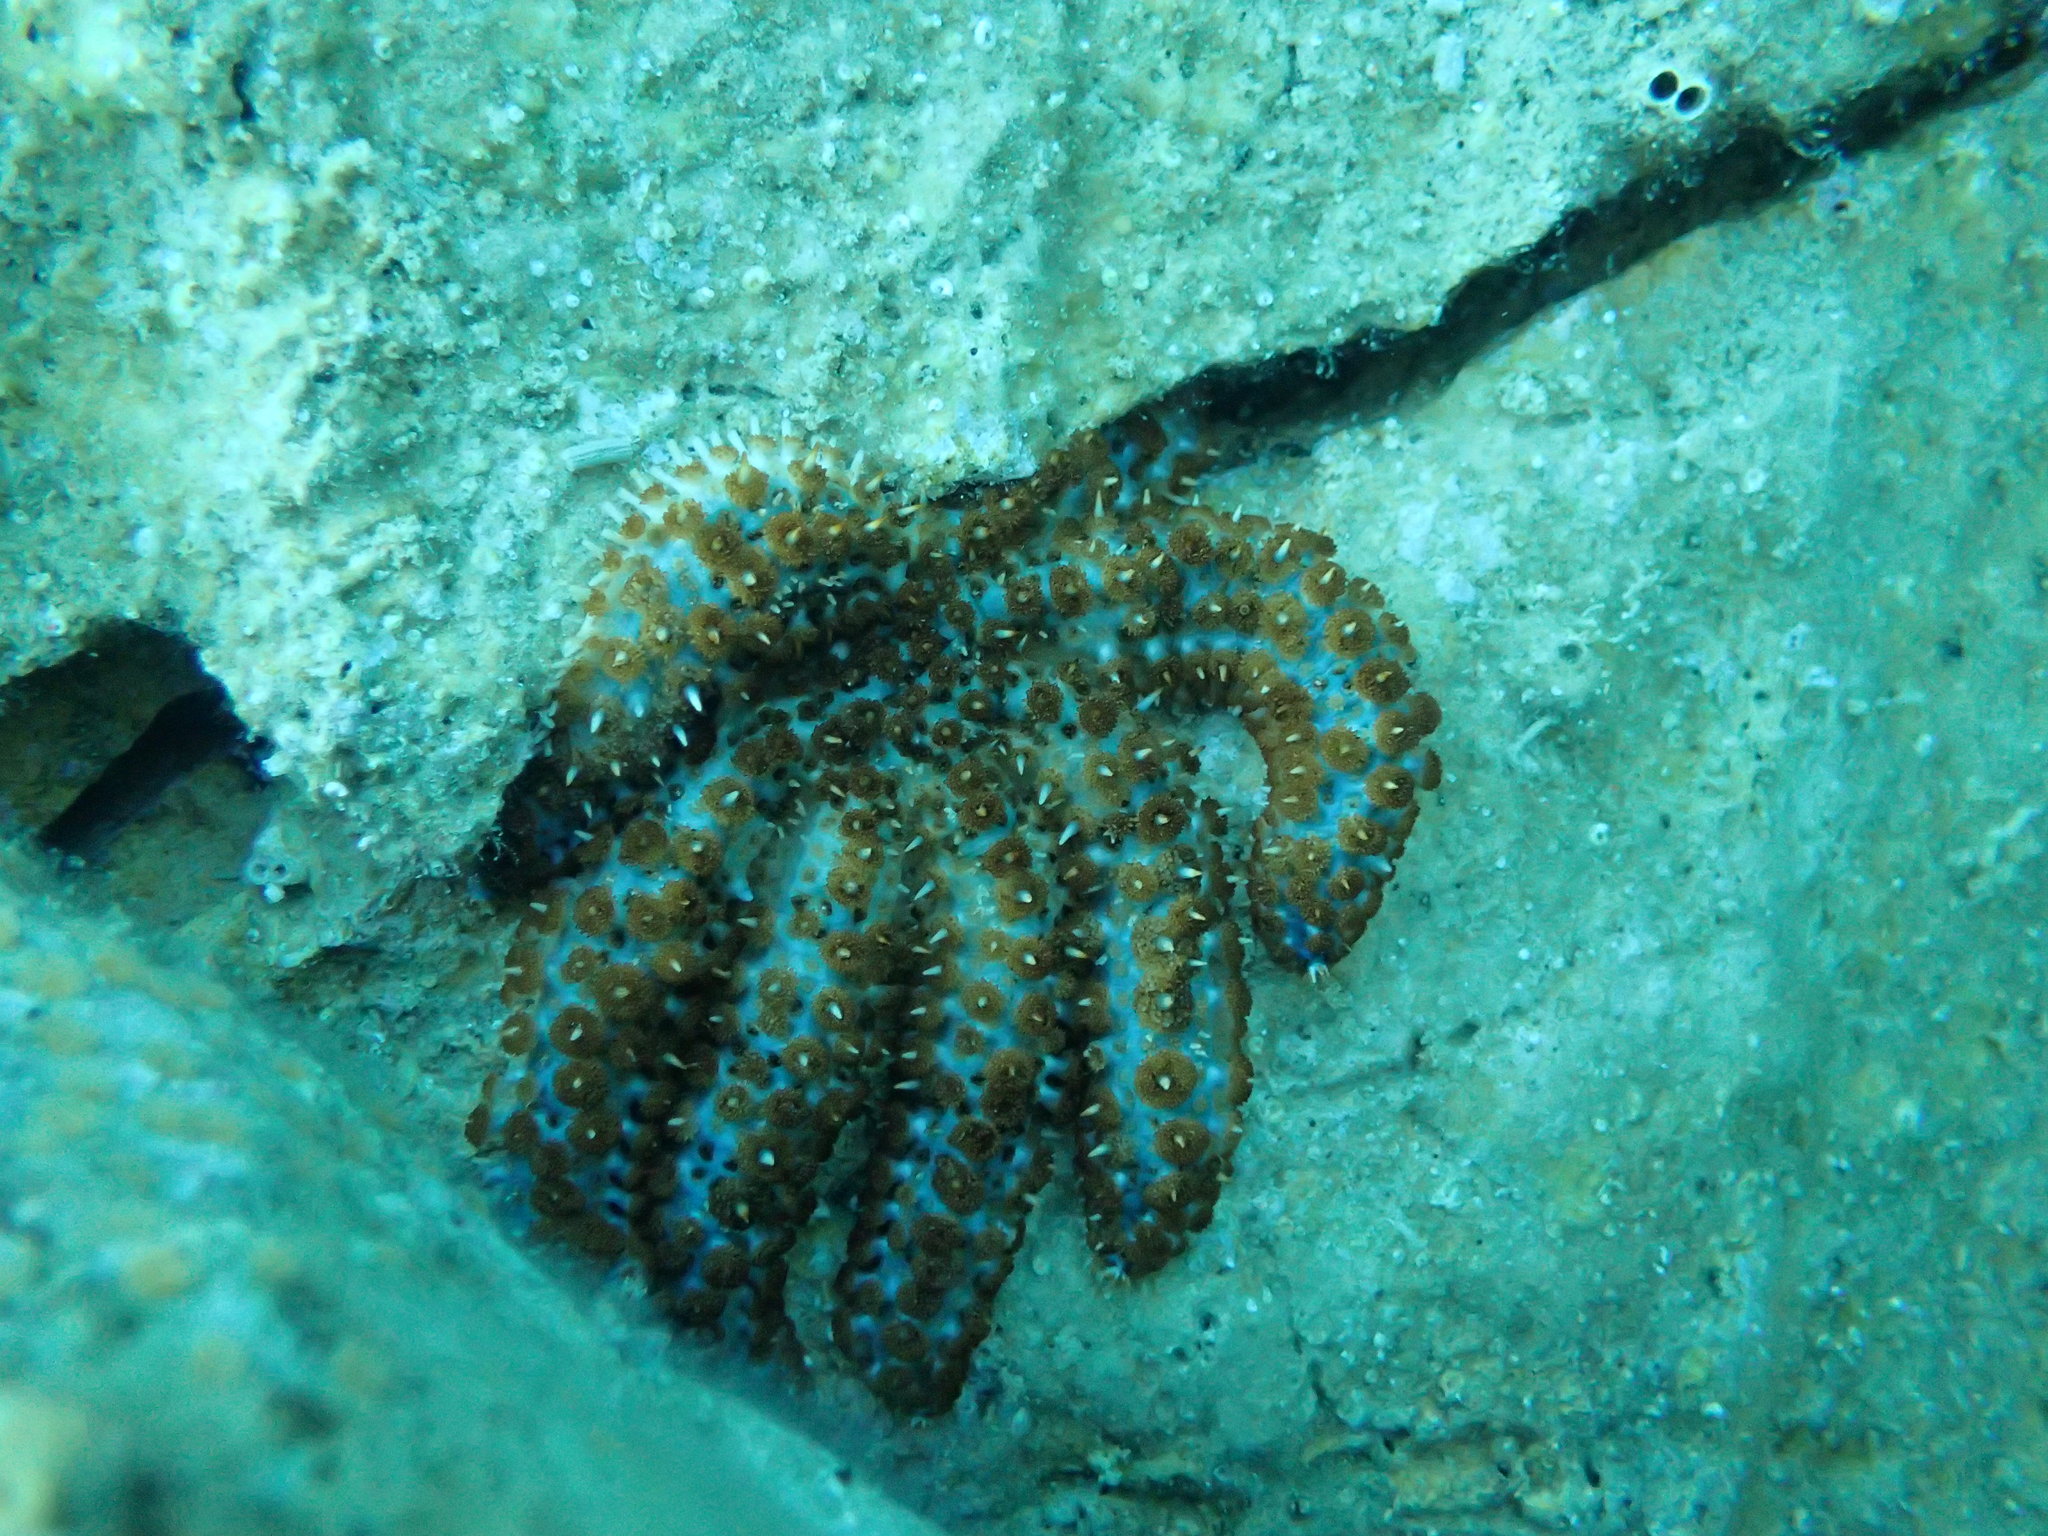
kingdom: Animalia
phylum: Echinodermata
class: Asteroidea
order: Forcipulatida
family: Asteriidae
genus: Coscinasterias
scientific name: Coscinasterias tenuispina
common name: Blue spiny starfish
